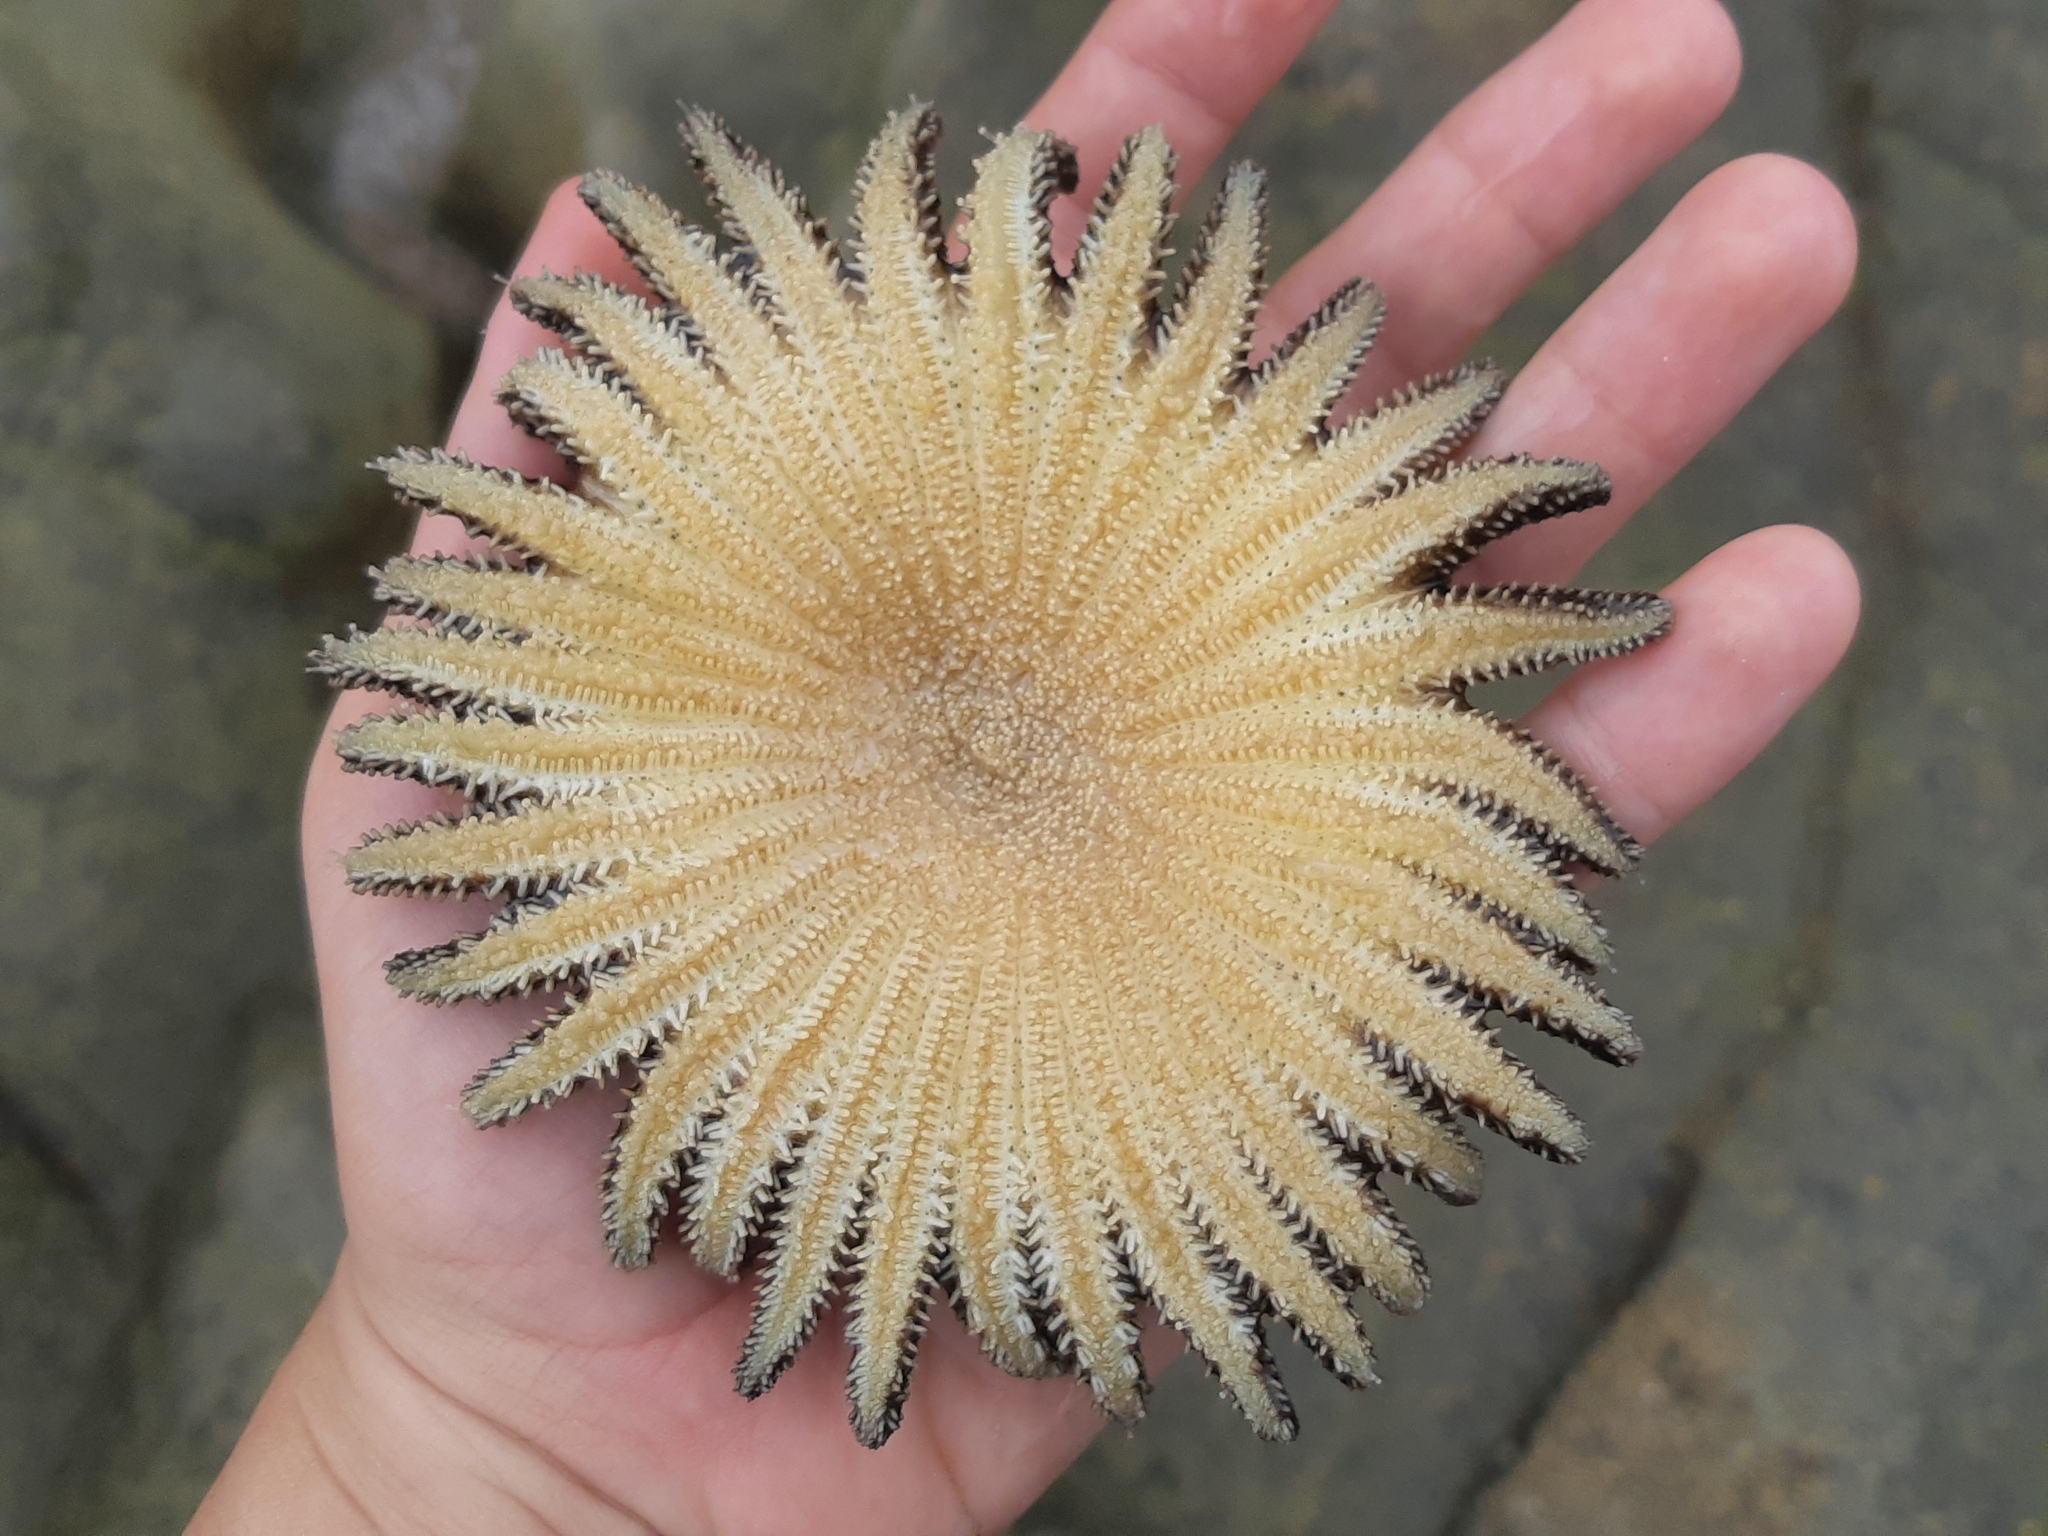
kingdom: Animalia
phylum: Echinodermata
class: Asteroidea
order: Forcipulatida
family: Heliasteridae
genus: Heliaster
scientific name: Heliaster cumingi
